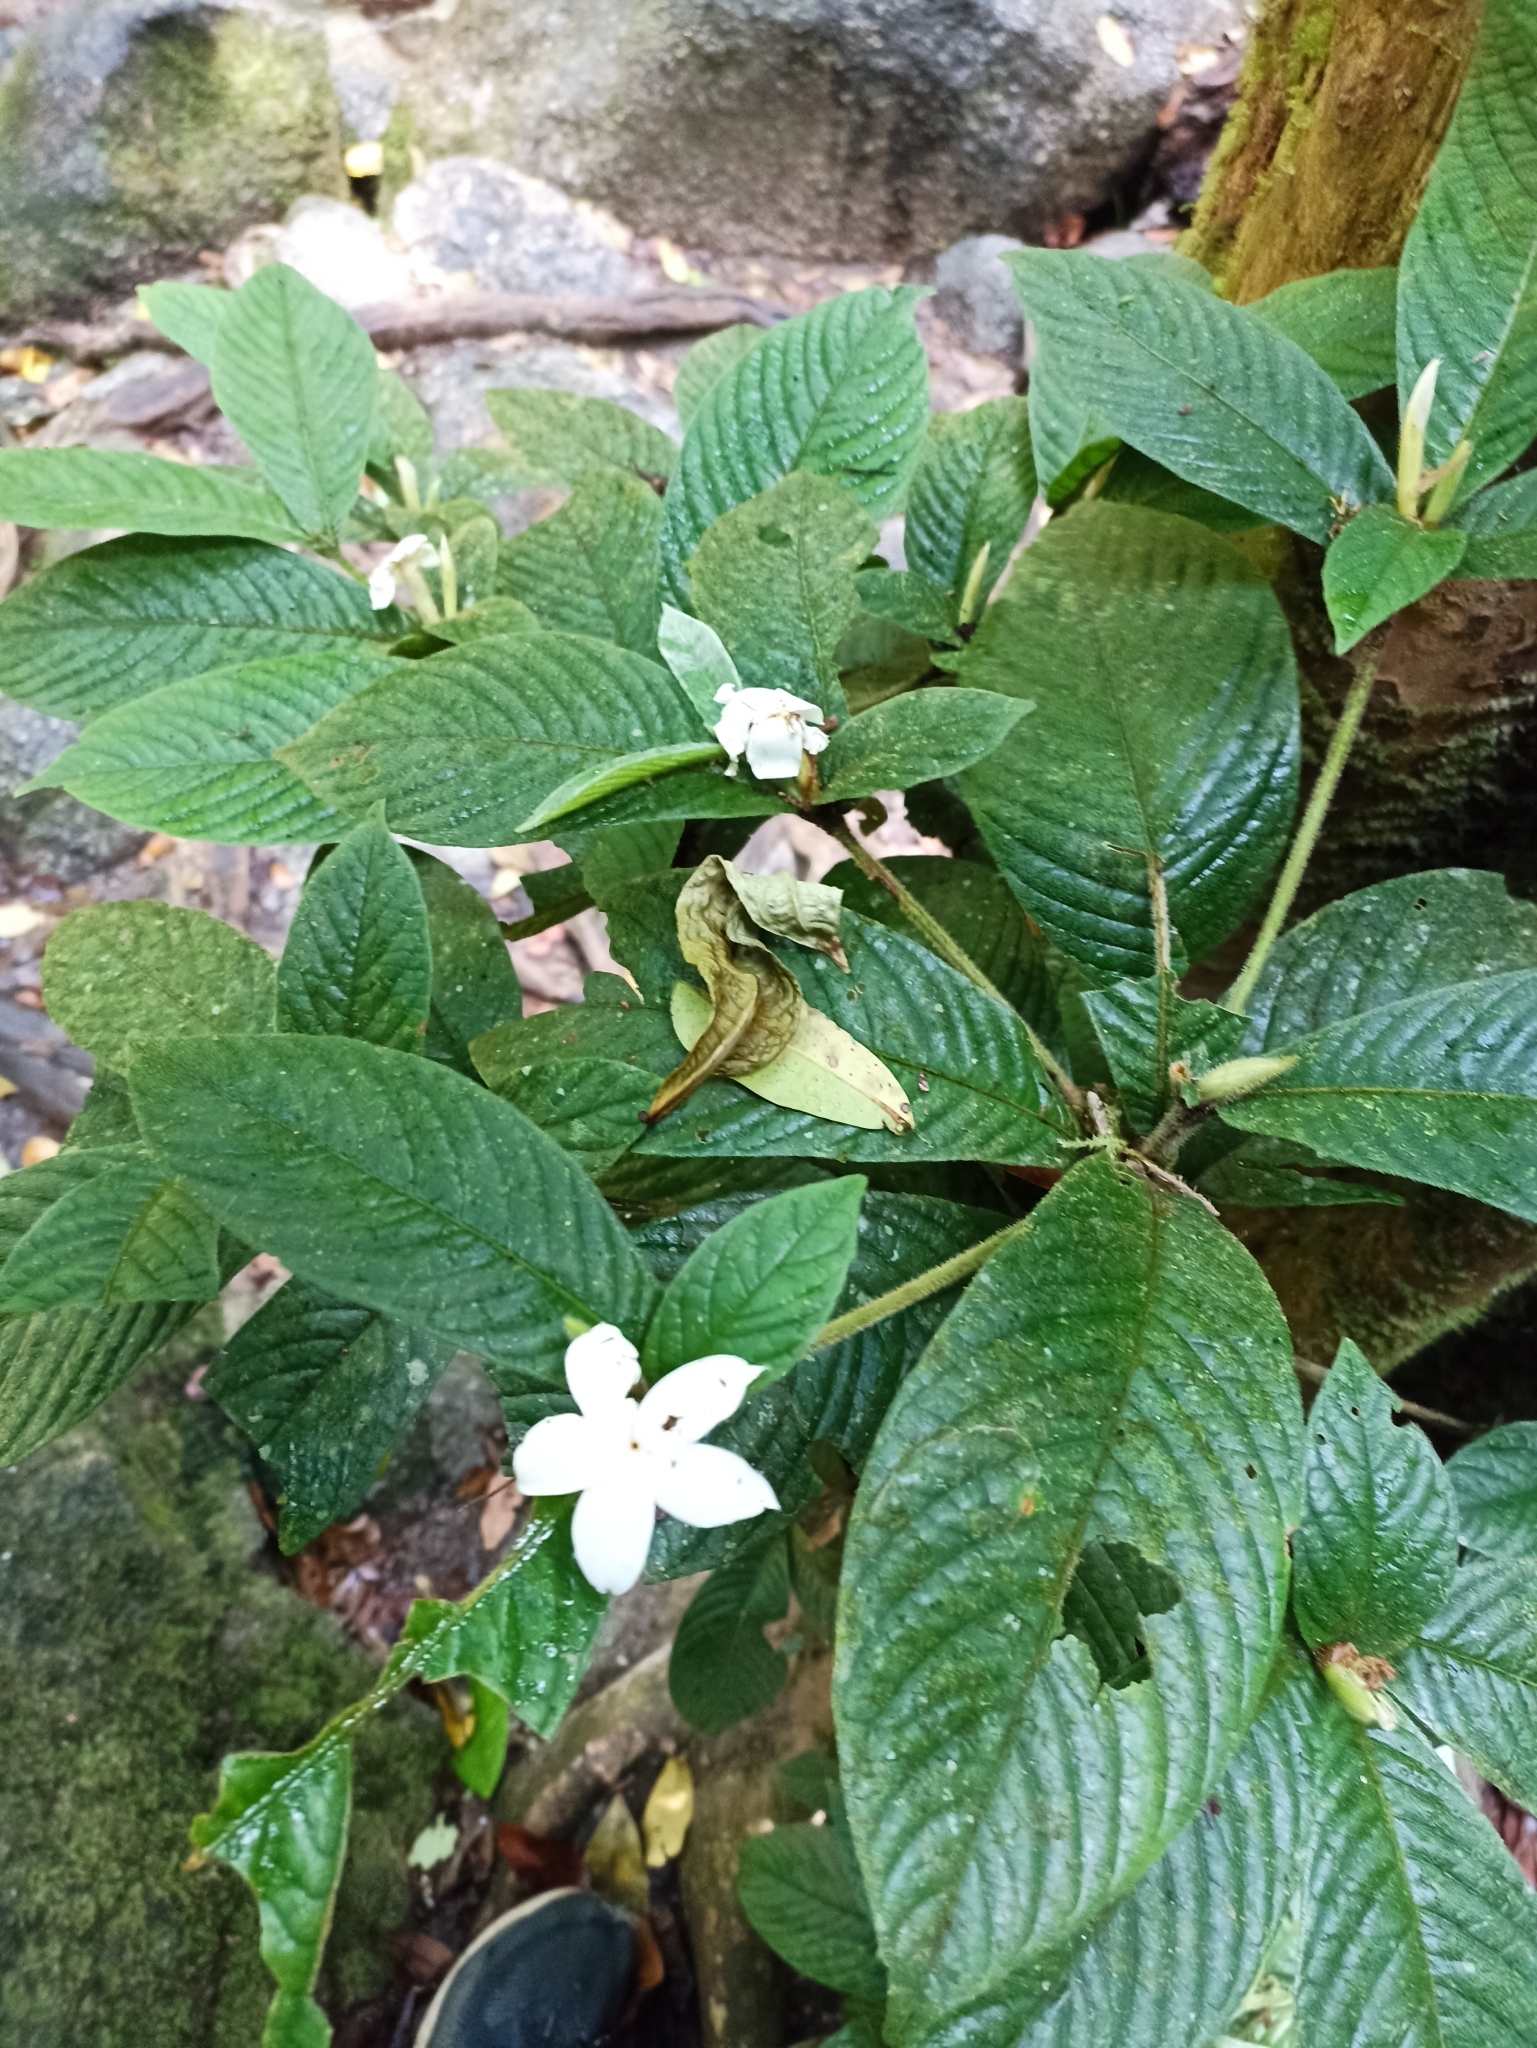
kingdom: Plantae
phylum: Tracheophyta
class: Magnoliopsida
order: Gentianales
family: Rubiaceae
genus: Atractocarpus
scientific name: Atractocarpus hirtus
